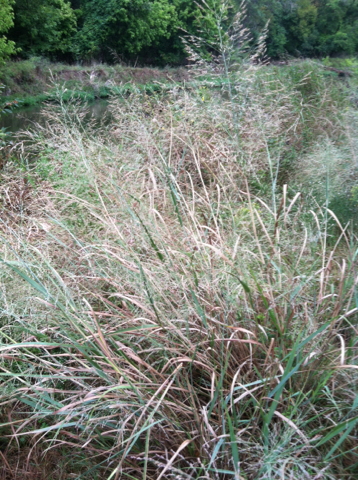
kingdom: Plantae
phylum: Tracheophyta
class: Liliopsida
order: Poales
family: Poaceae
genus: Panicum
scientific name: Panicum virgatum
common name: Switchgrass
